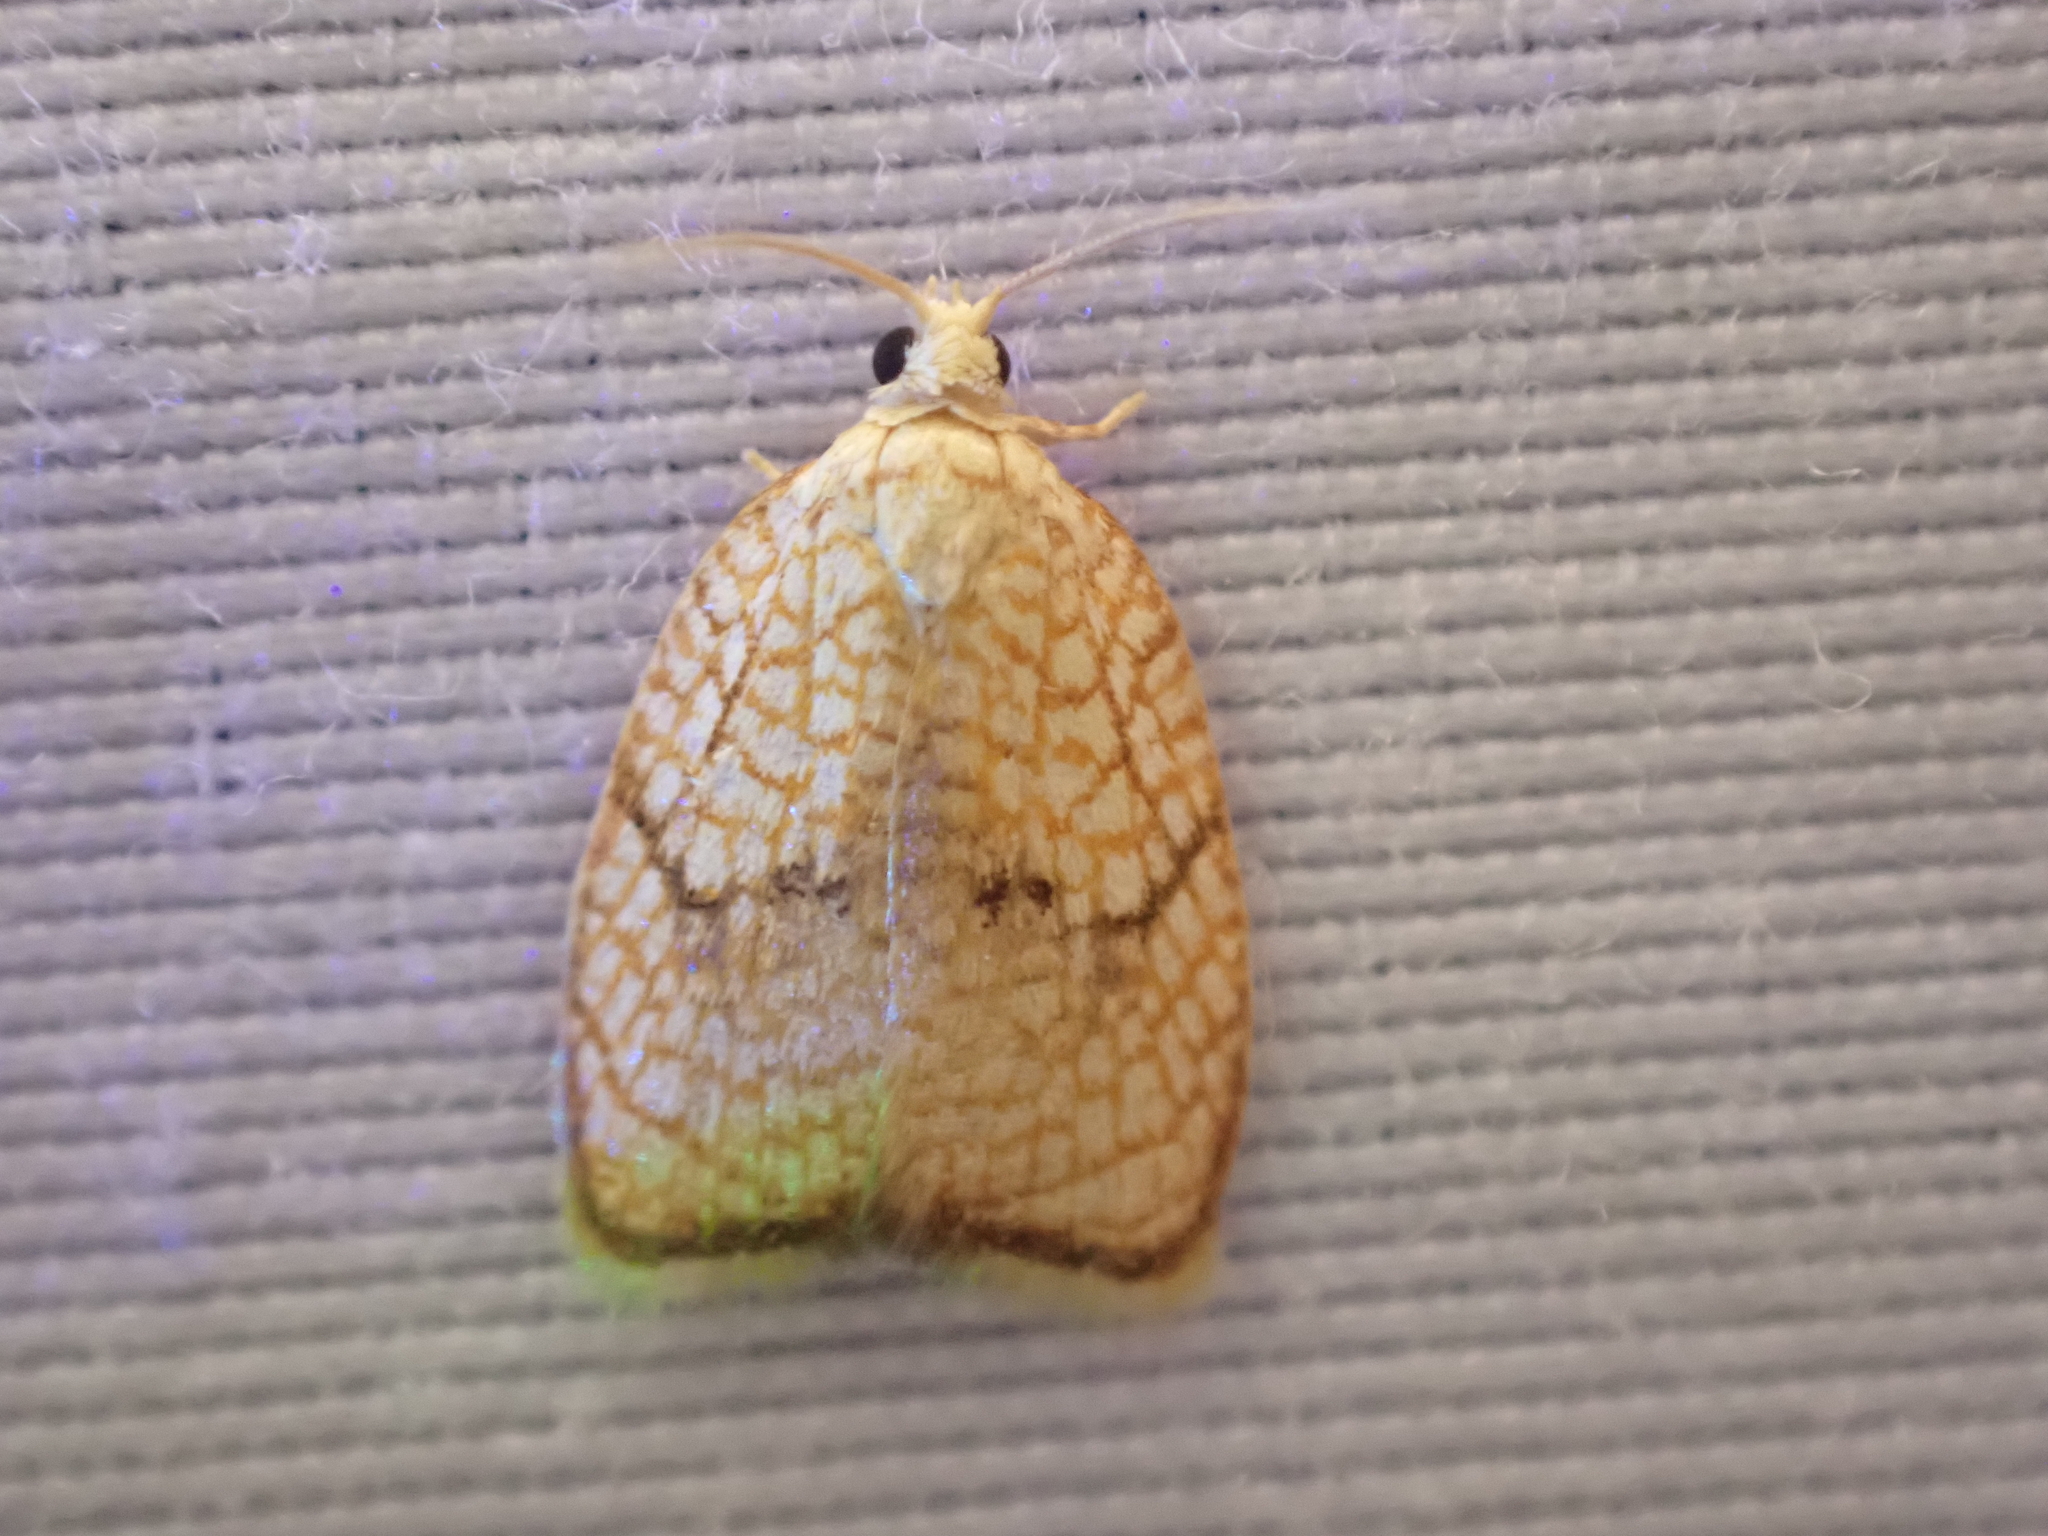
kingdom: Animalia
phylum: Arthropoda
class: Insecta
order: Lepidoptera
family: Tortricidae
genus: Acleris
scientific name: Acleris forsskaleana
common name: Maple button
